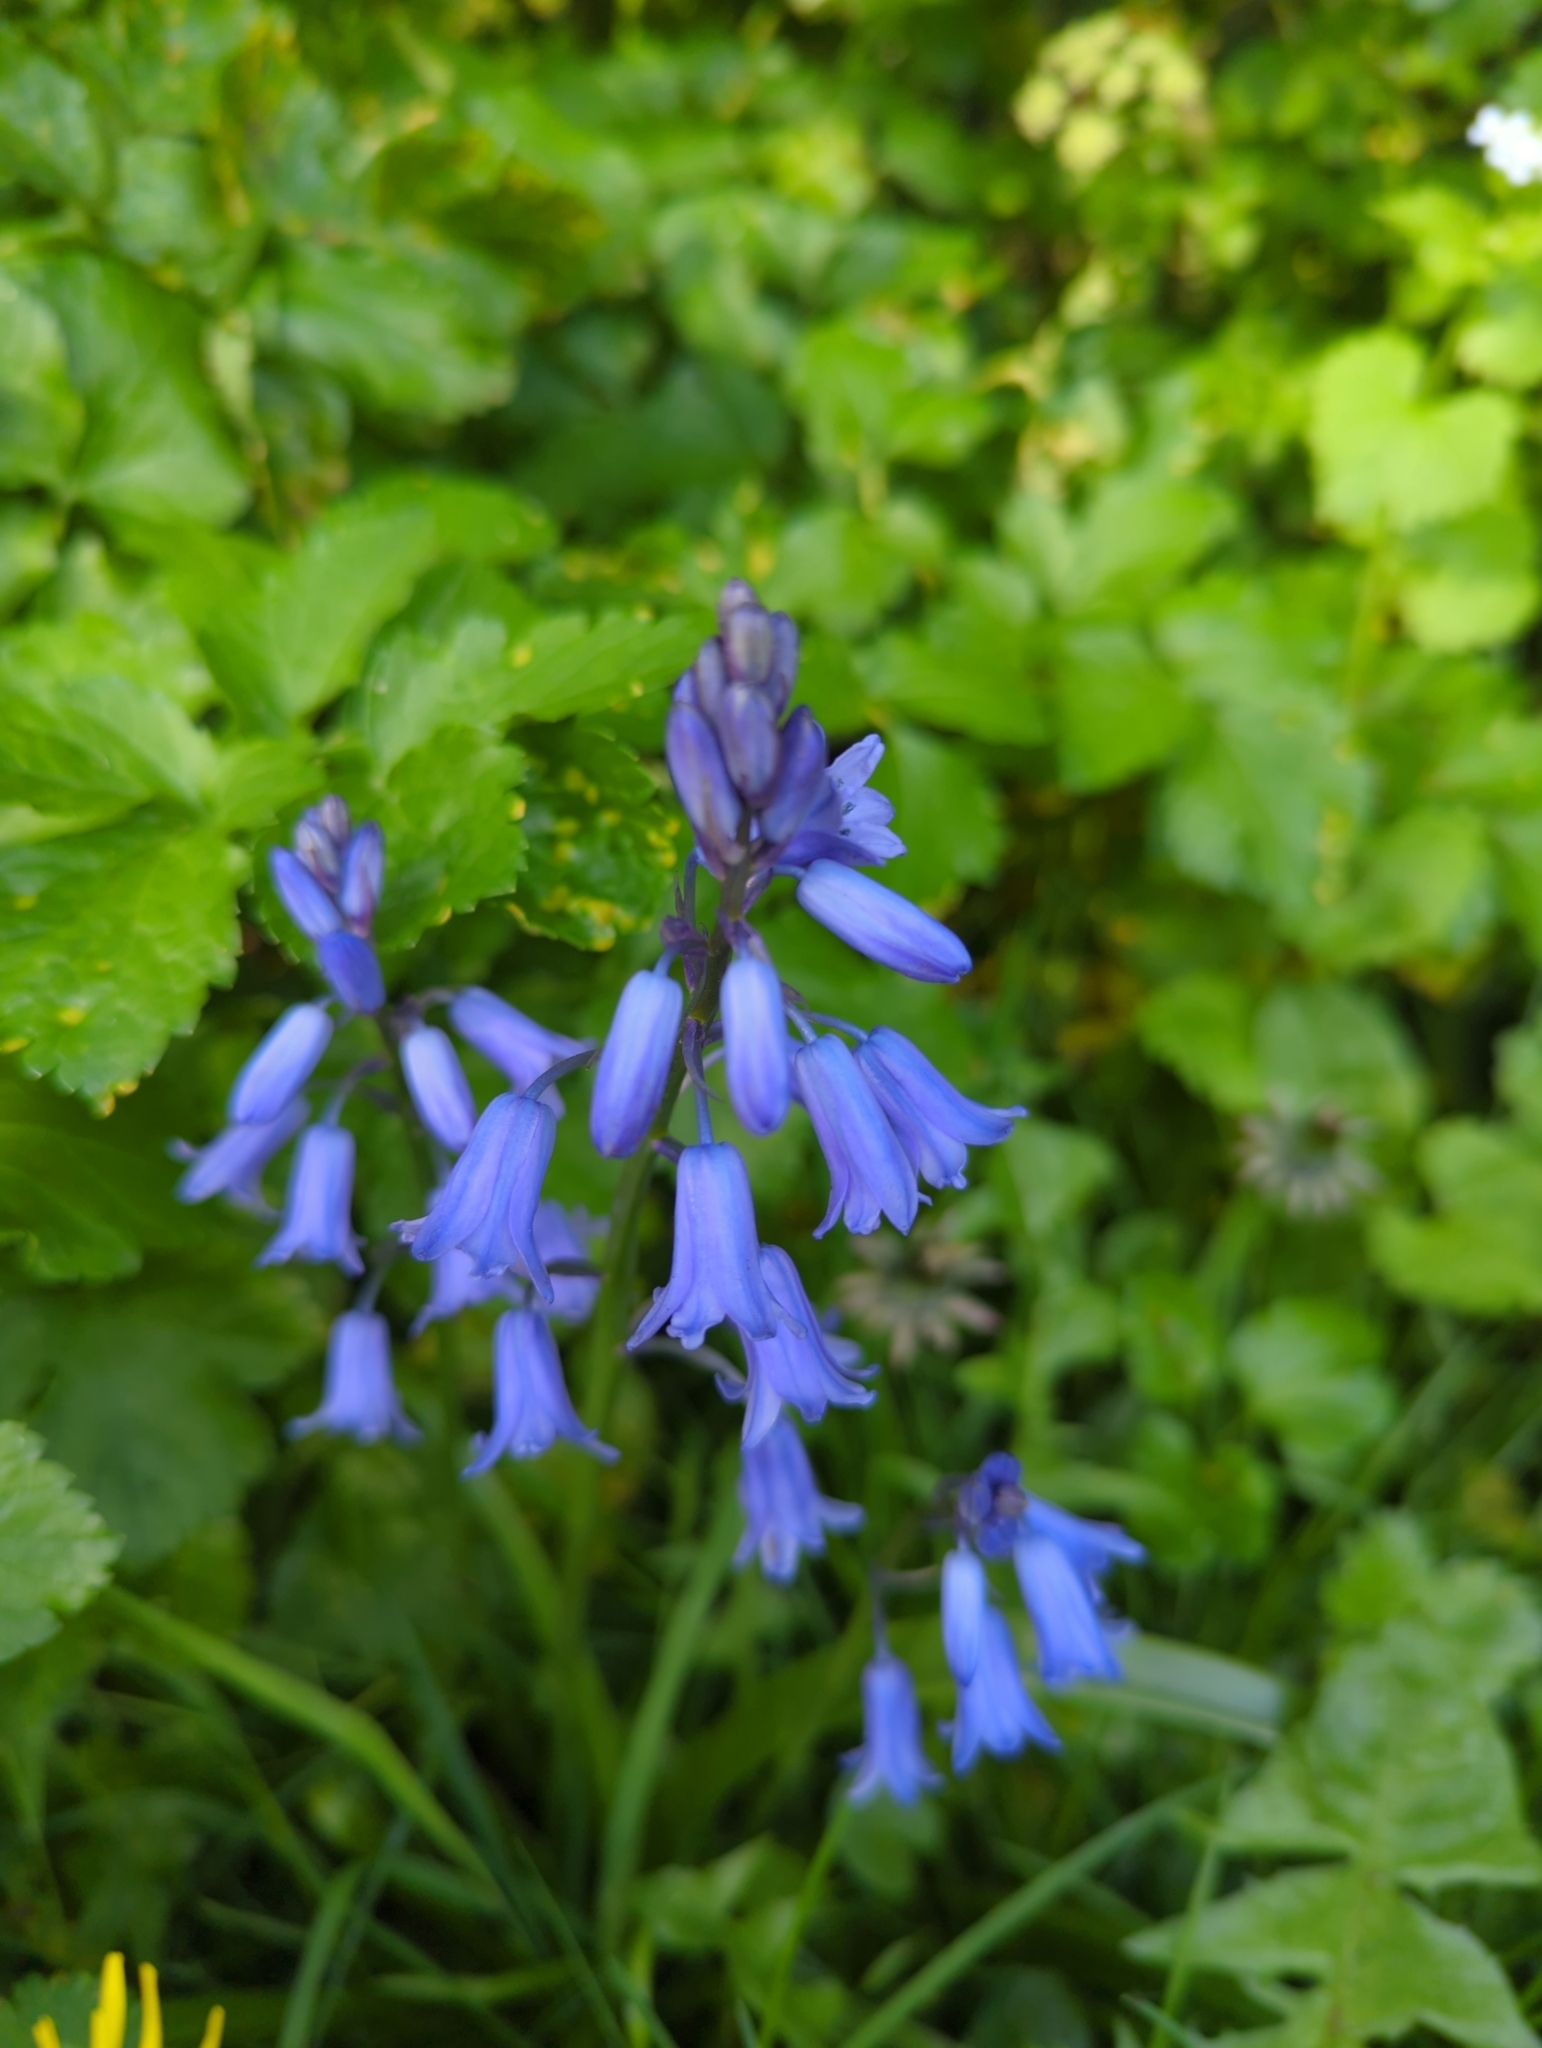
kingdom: Plantae
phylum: Tracheophyta
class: Liliopsida
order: Asparagales
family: Asparagaceae
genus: Hyacinthoides
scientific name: Hyacinthoides massartiana
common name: Hyacinthoides
